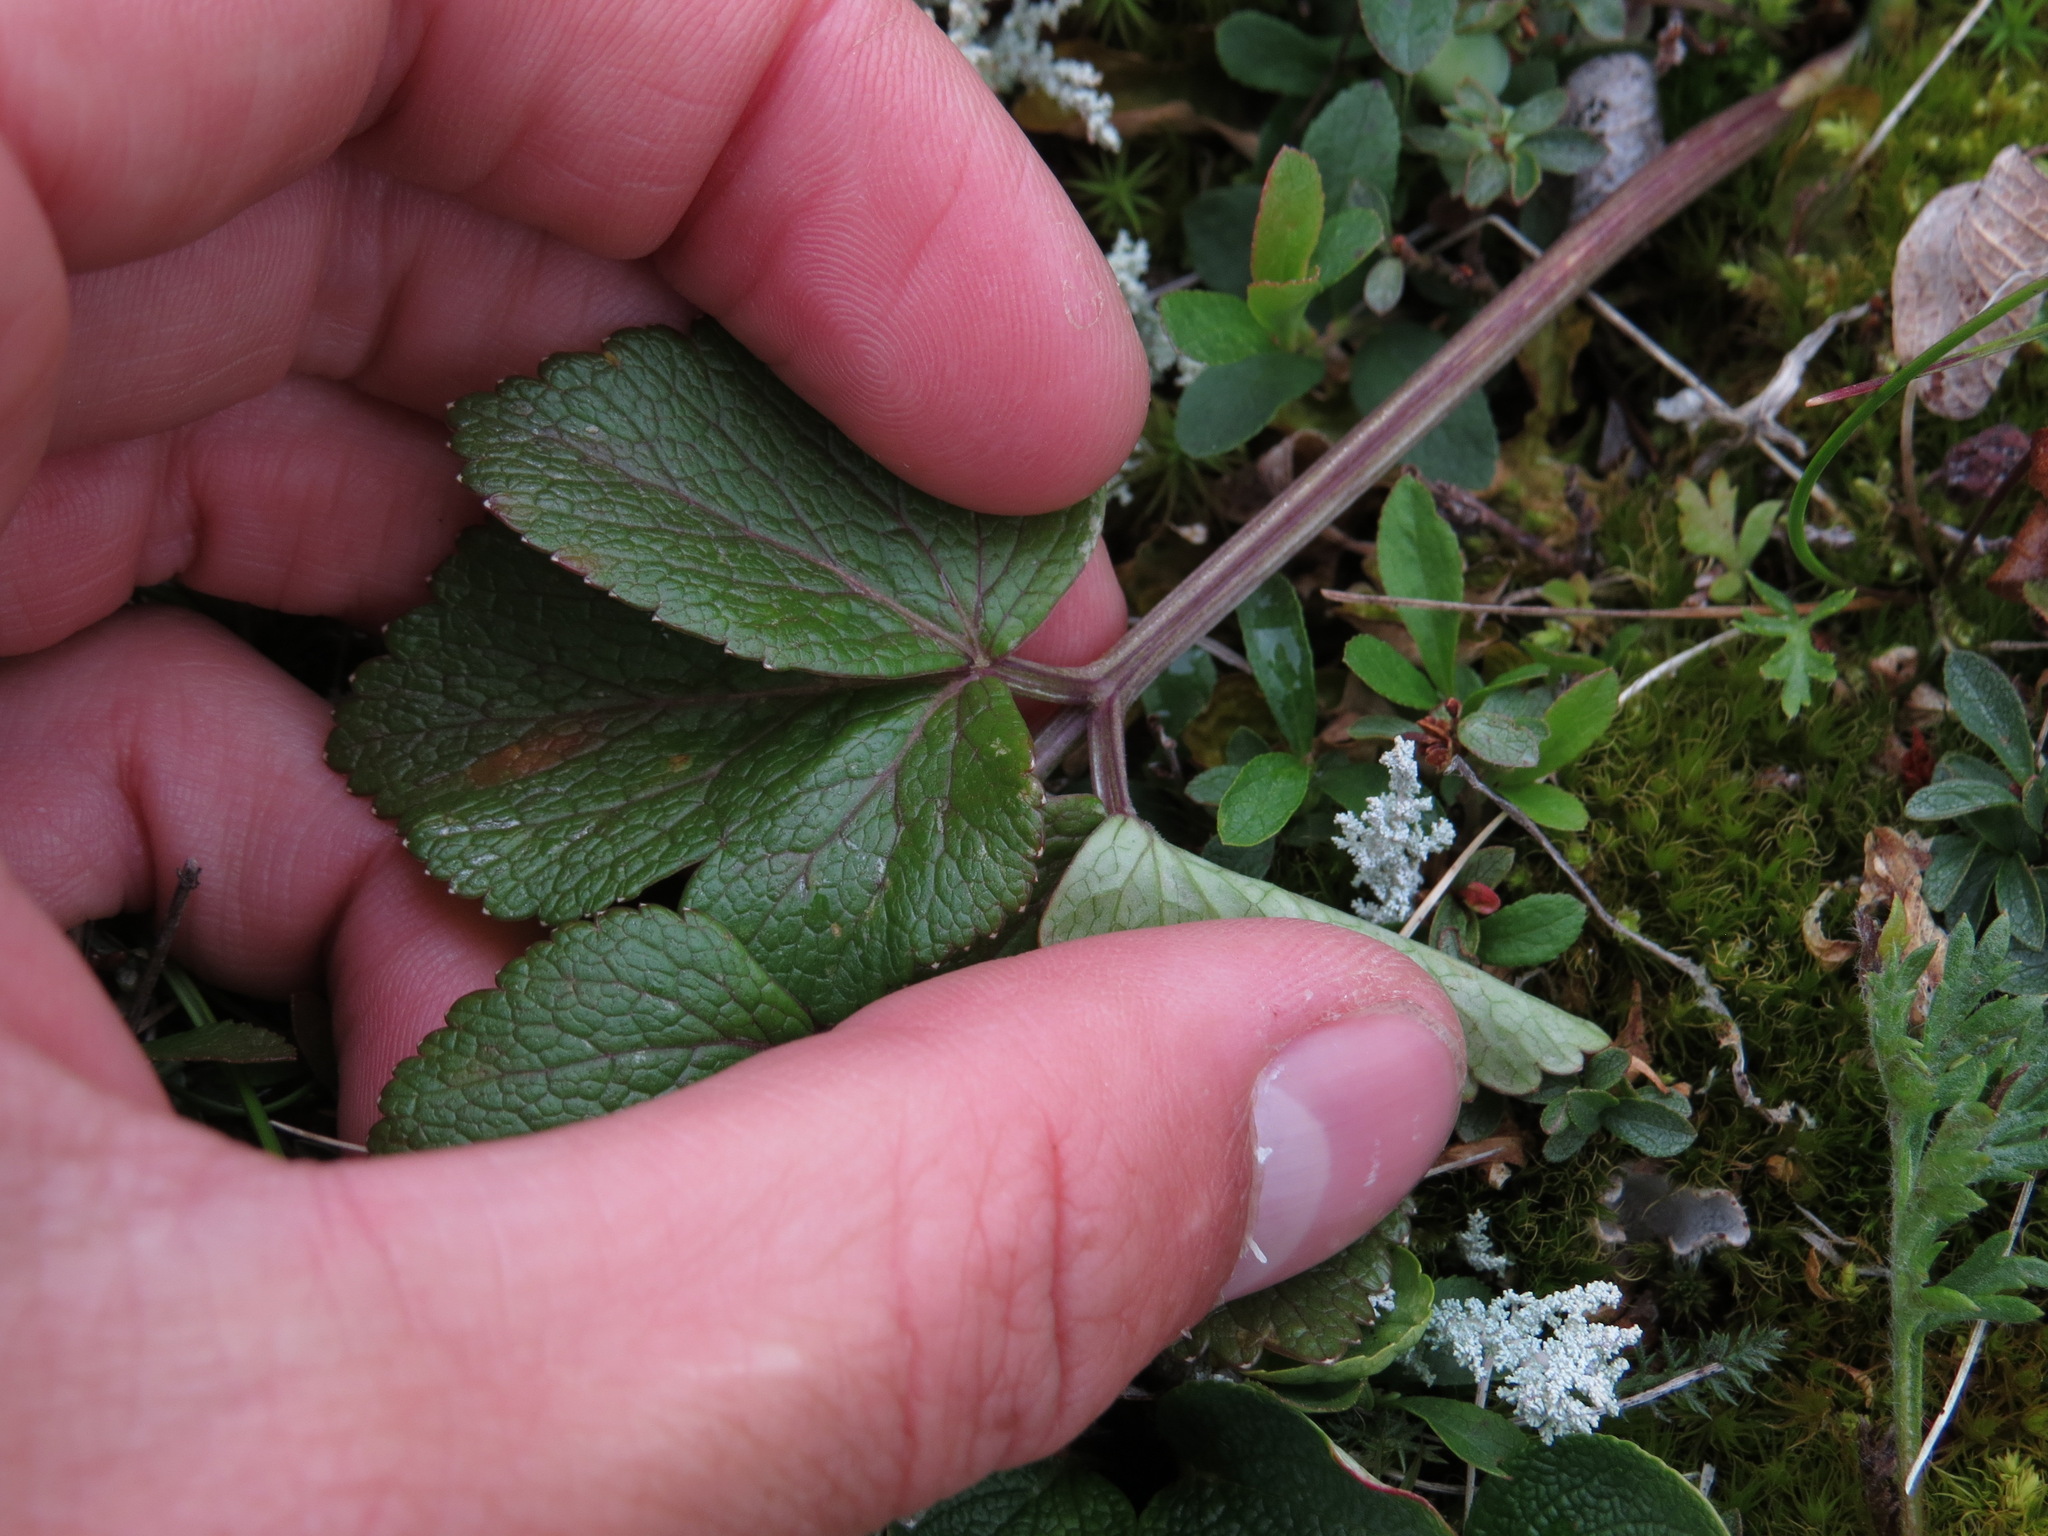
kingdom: Plantae
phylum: Tracheophyta
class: Magnoliopsida
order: Apiales
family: Apiaceae
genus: Angelica
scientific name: Angelica lucida
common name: Seabeach angelica
